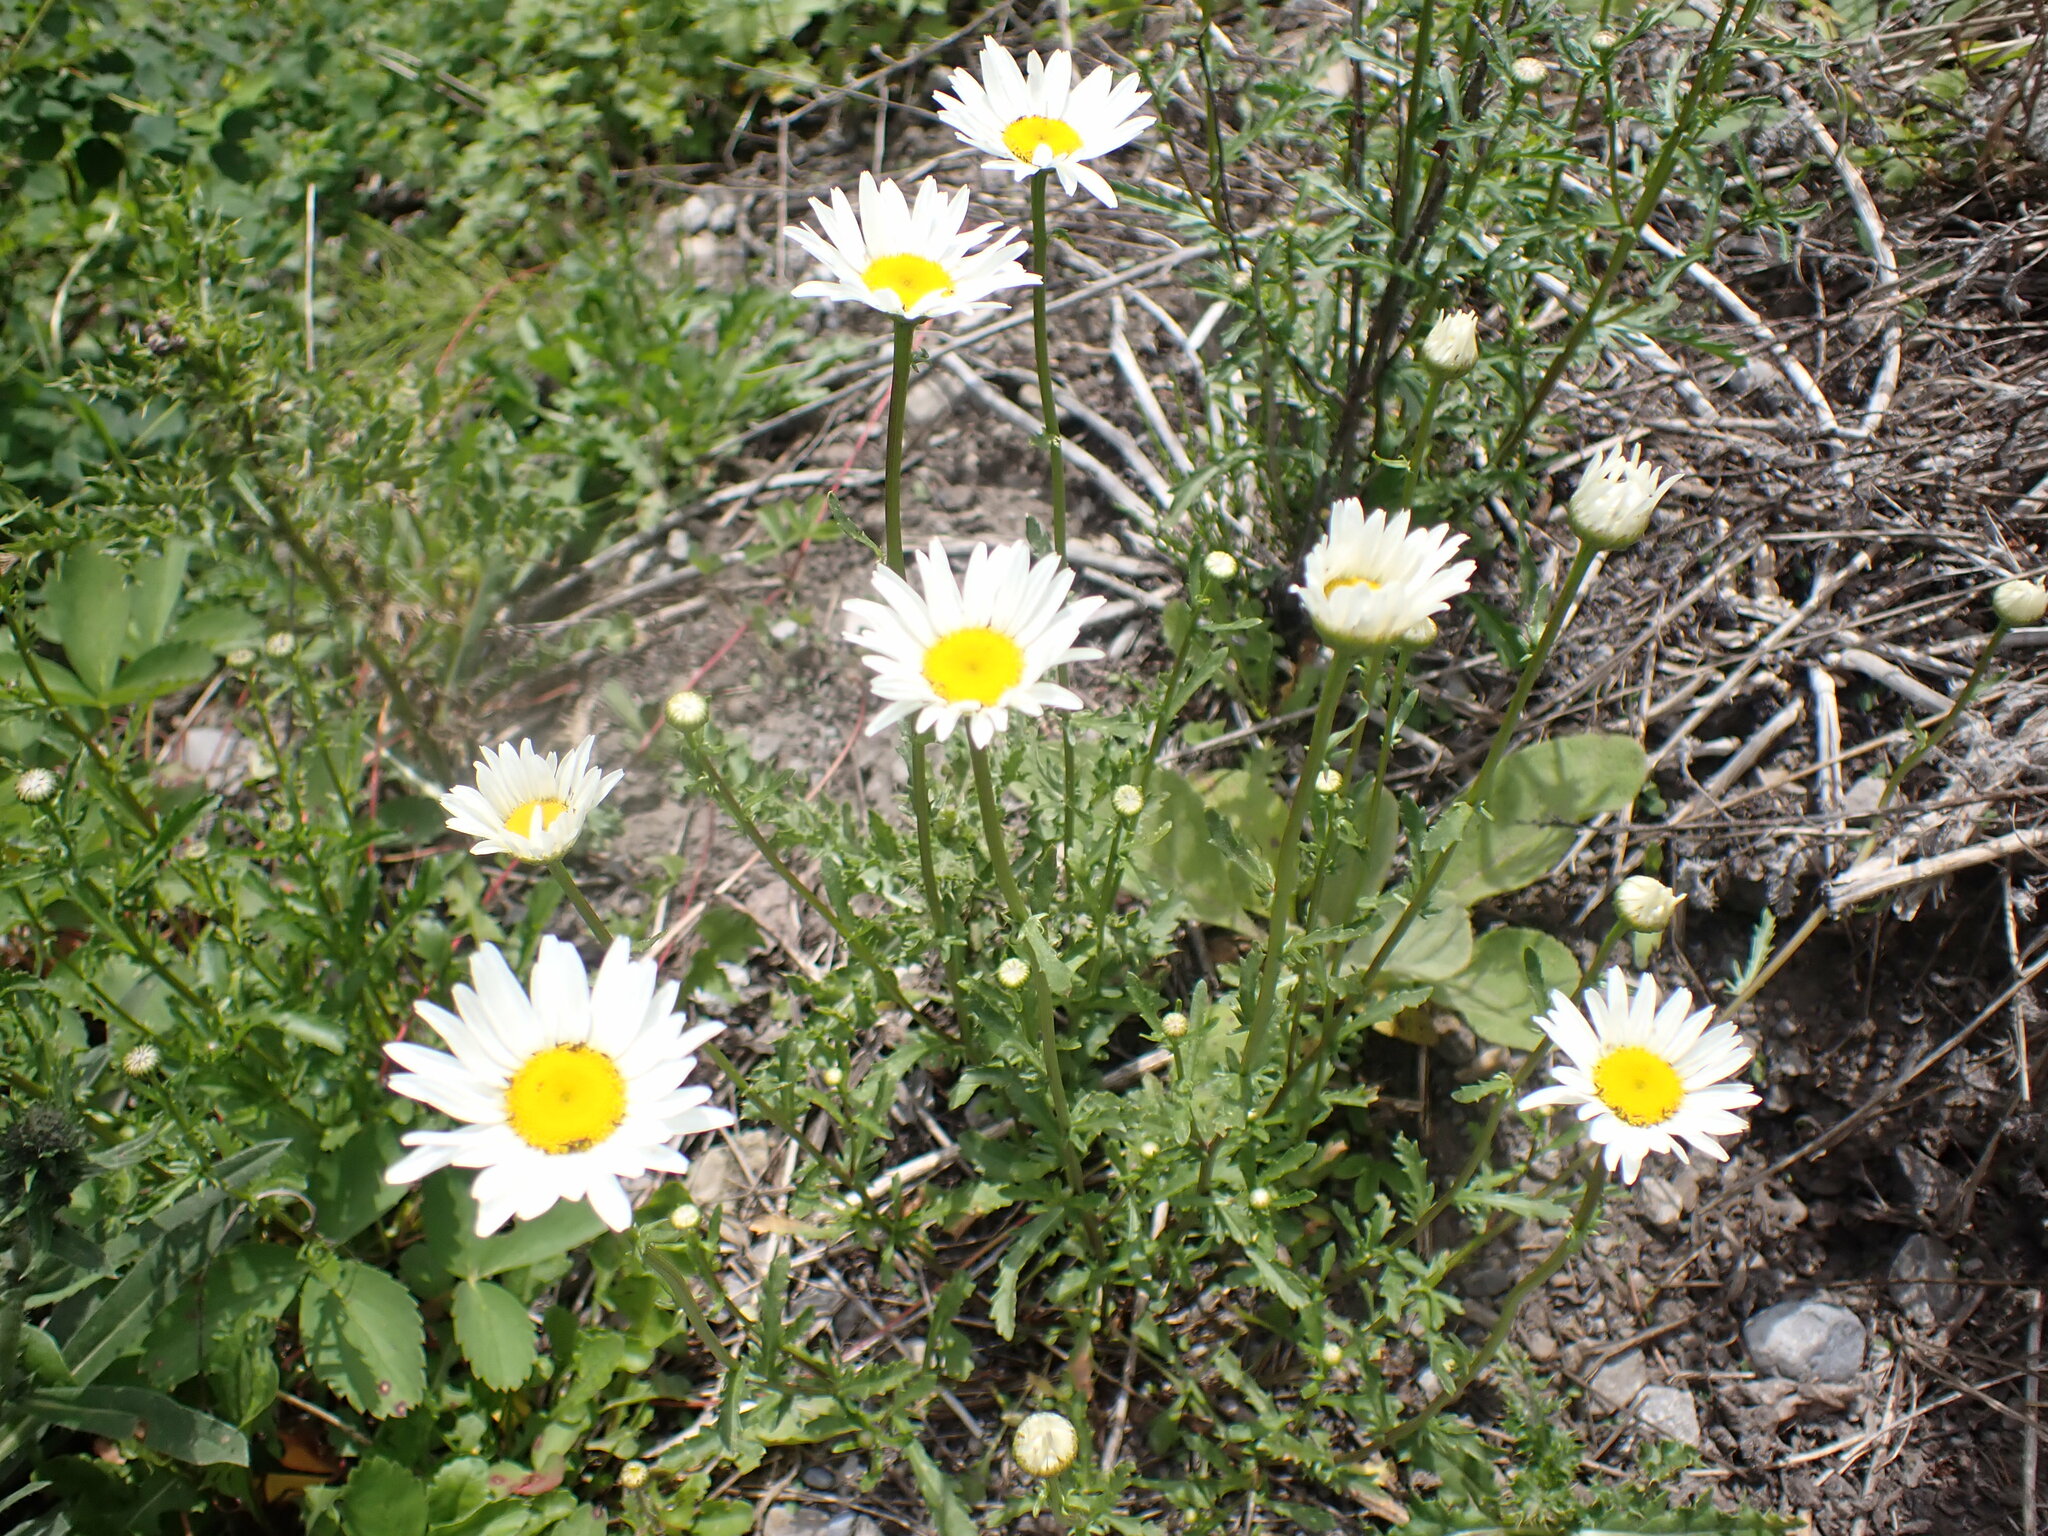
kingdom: Plantae
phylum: Tracheophyta
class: Magnoliopsida
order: Asterales
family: Asteraceae
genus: Leucanthemum
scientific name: Leucanthemum vulgare
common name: Oxeye daisy
